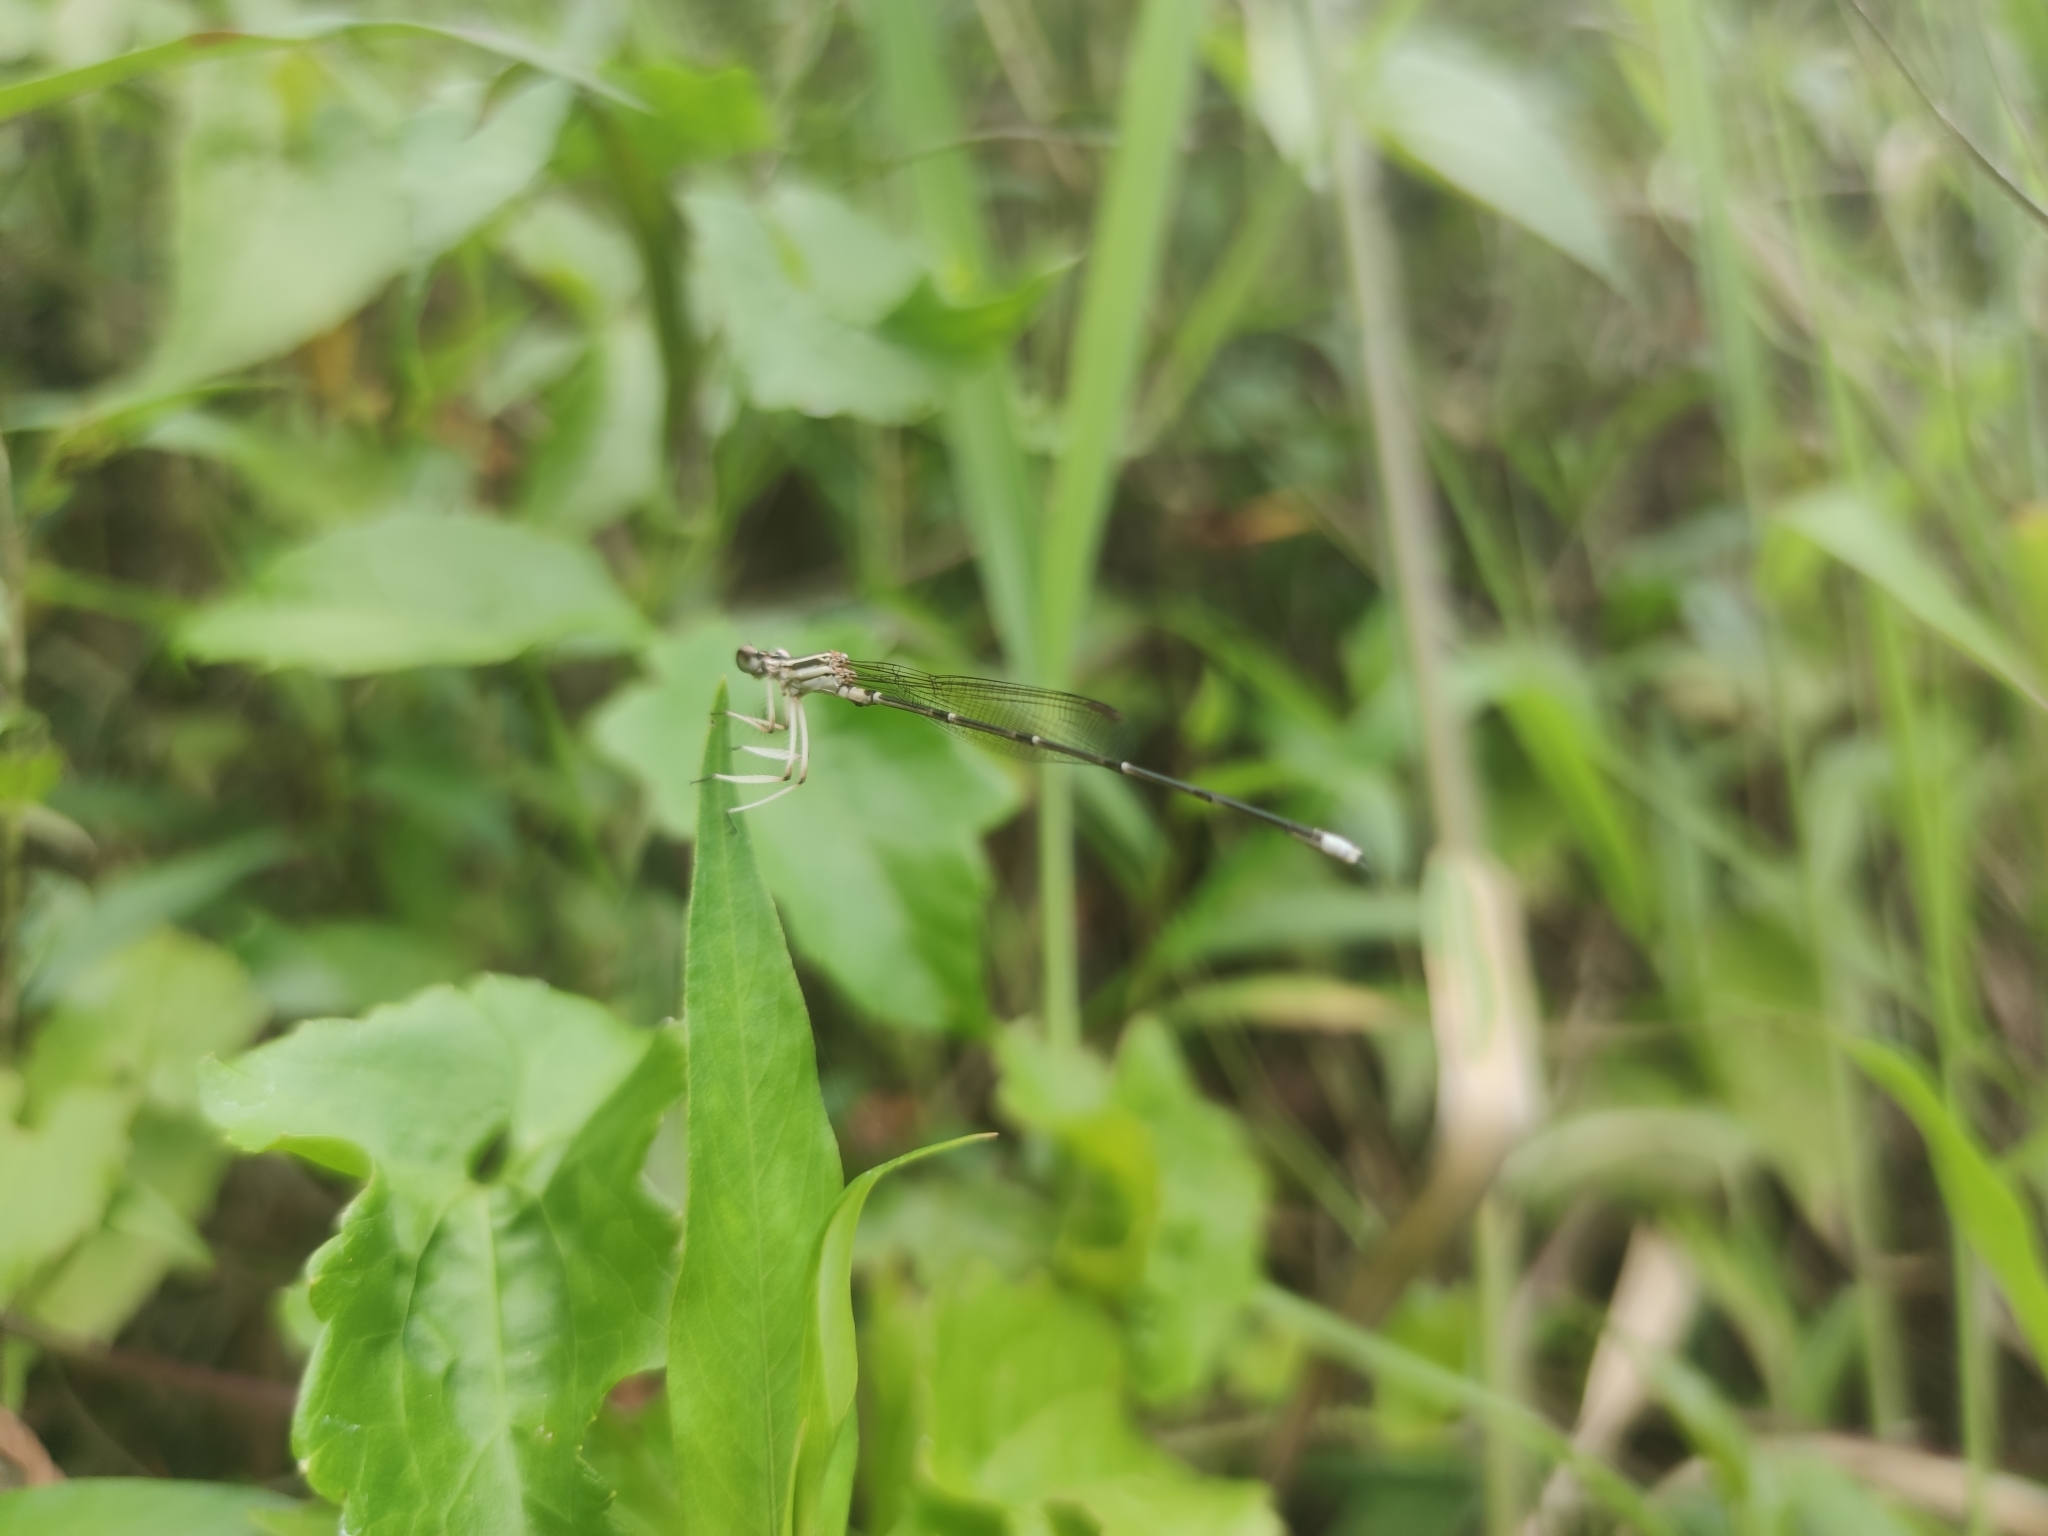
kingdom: Animalia
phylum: Arthropoda
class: Insecta
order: Odonata
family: Platycnemididae
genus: Copera
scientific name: Copera marginipes
